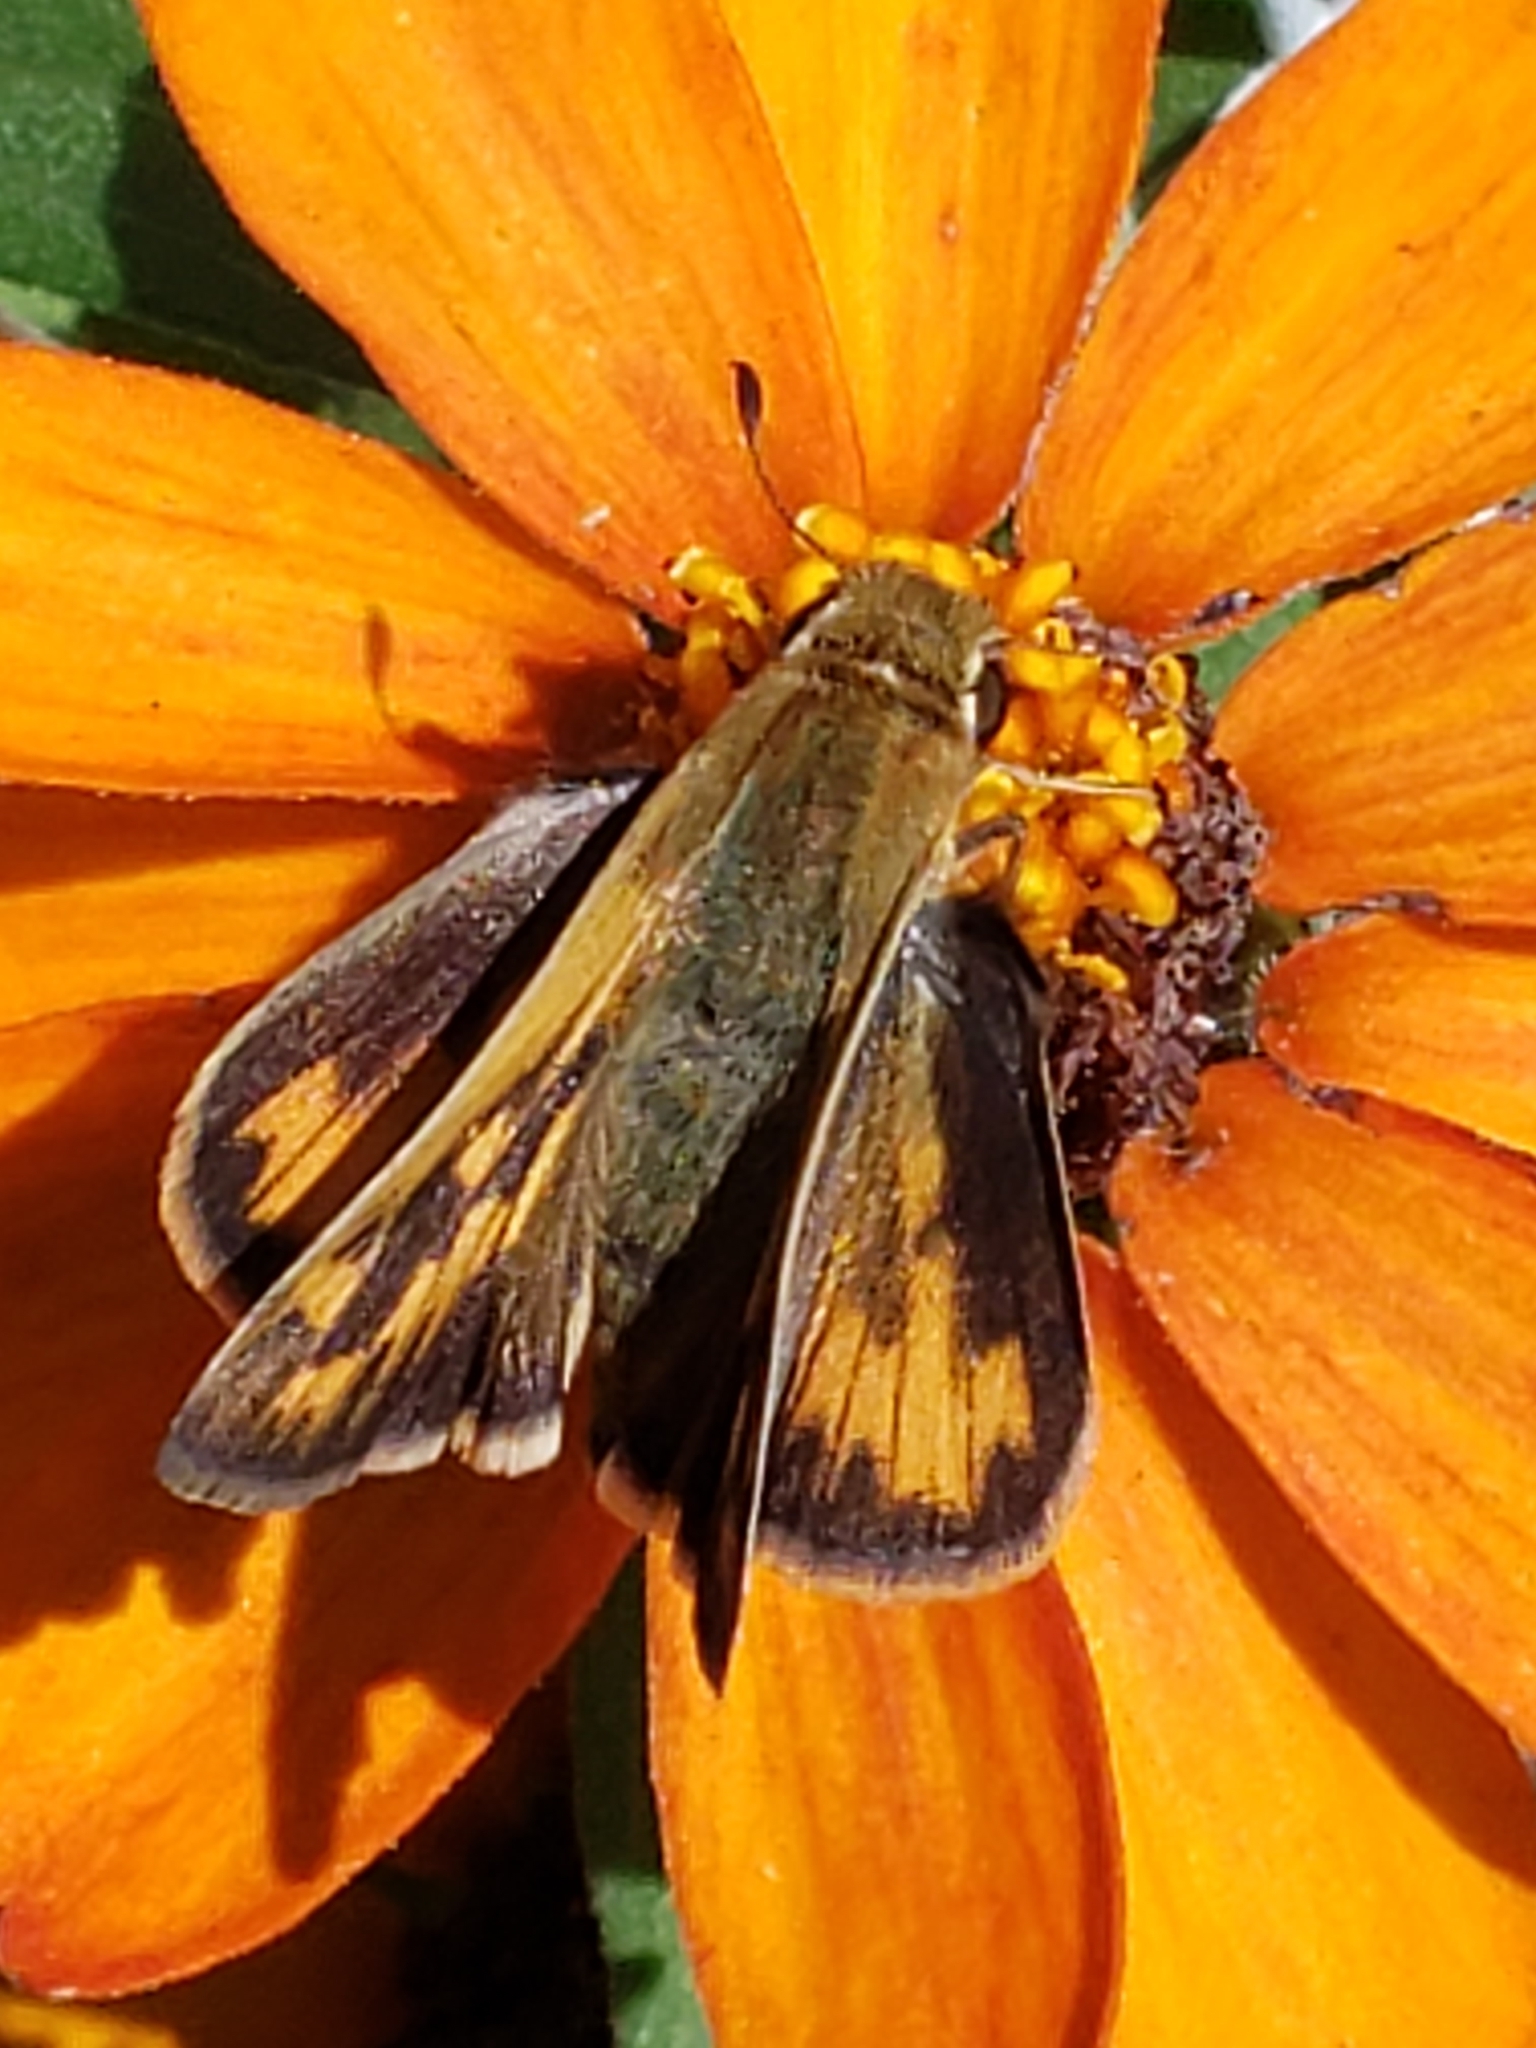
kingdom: Animalia
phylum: Arthropoda
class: Insecta
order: Lepidoptera
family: Hesperiidae
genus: Hylephila
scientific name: Hylephila phyleus
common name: Fiery skipper
